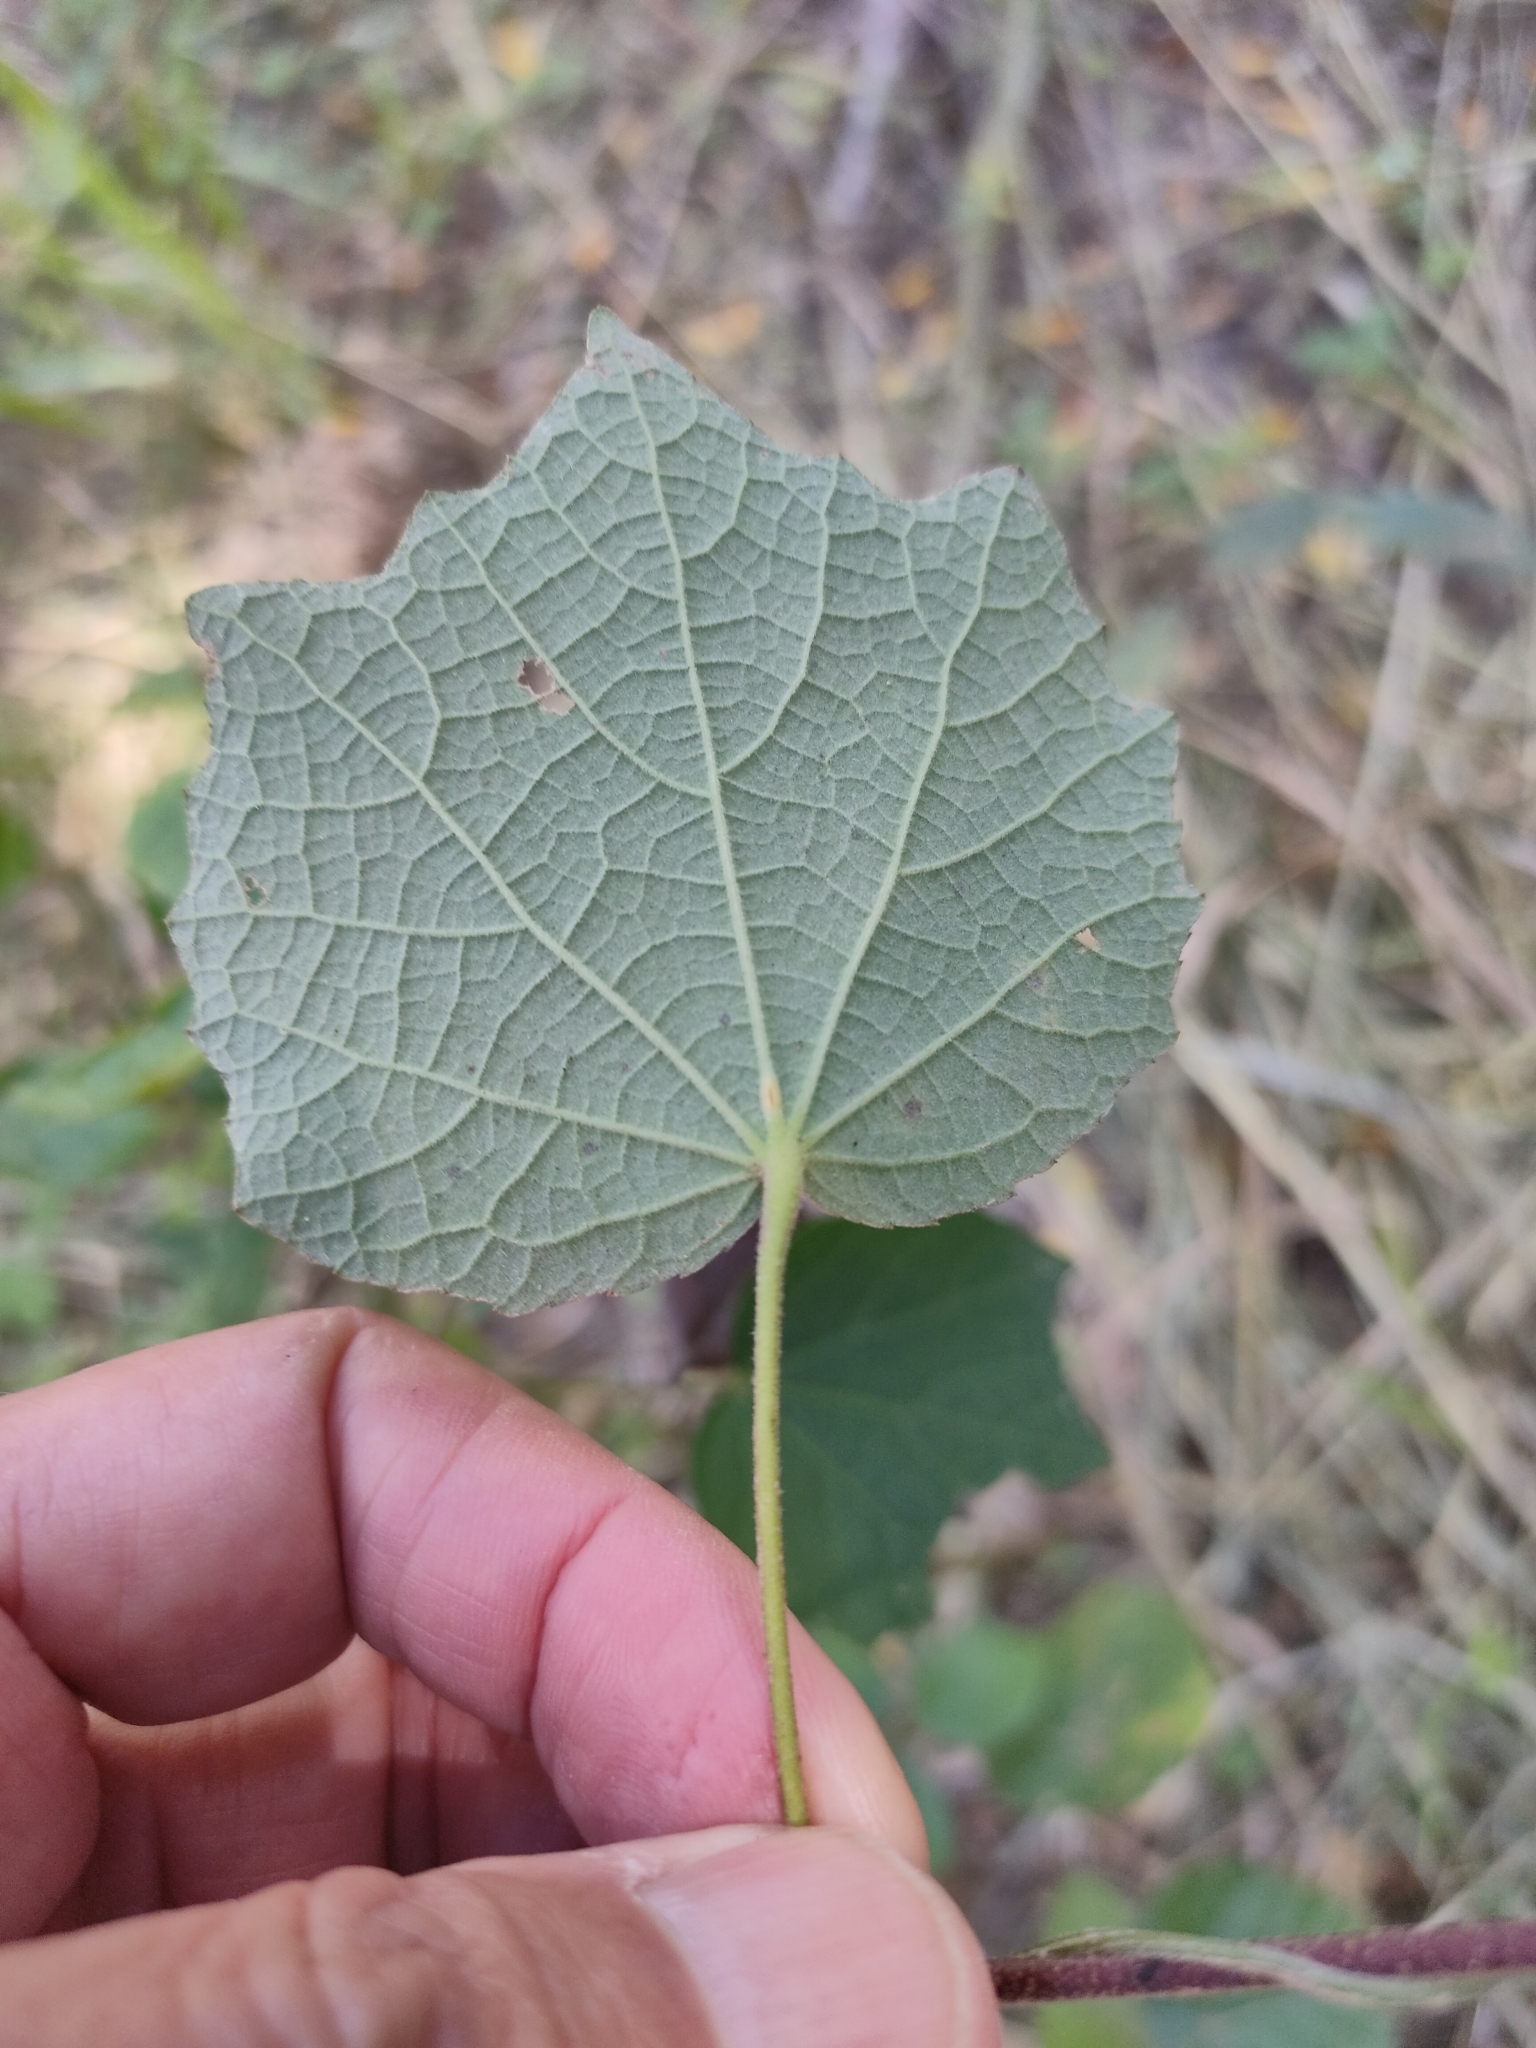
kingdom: Plantae
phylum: Tracheophyta
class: Magnoliopsida
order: Malvales
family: Malvaceae
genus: Urena
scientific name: Urena lobata
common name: Caesarweed
